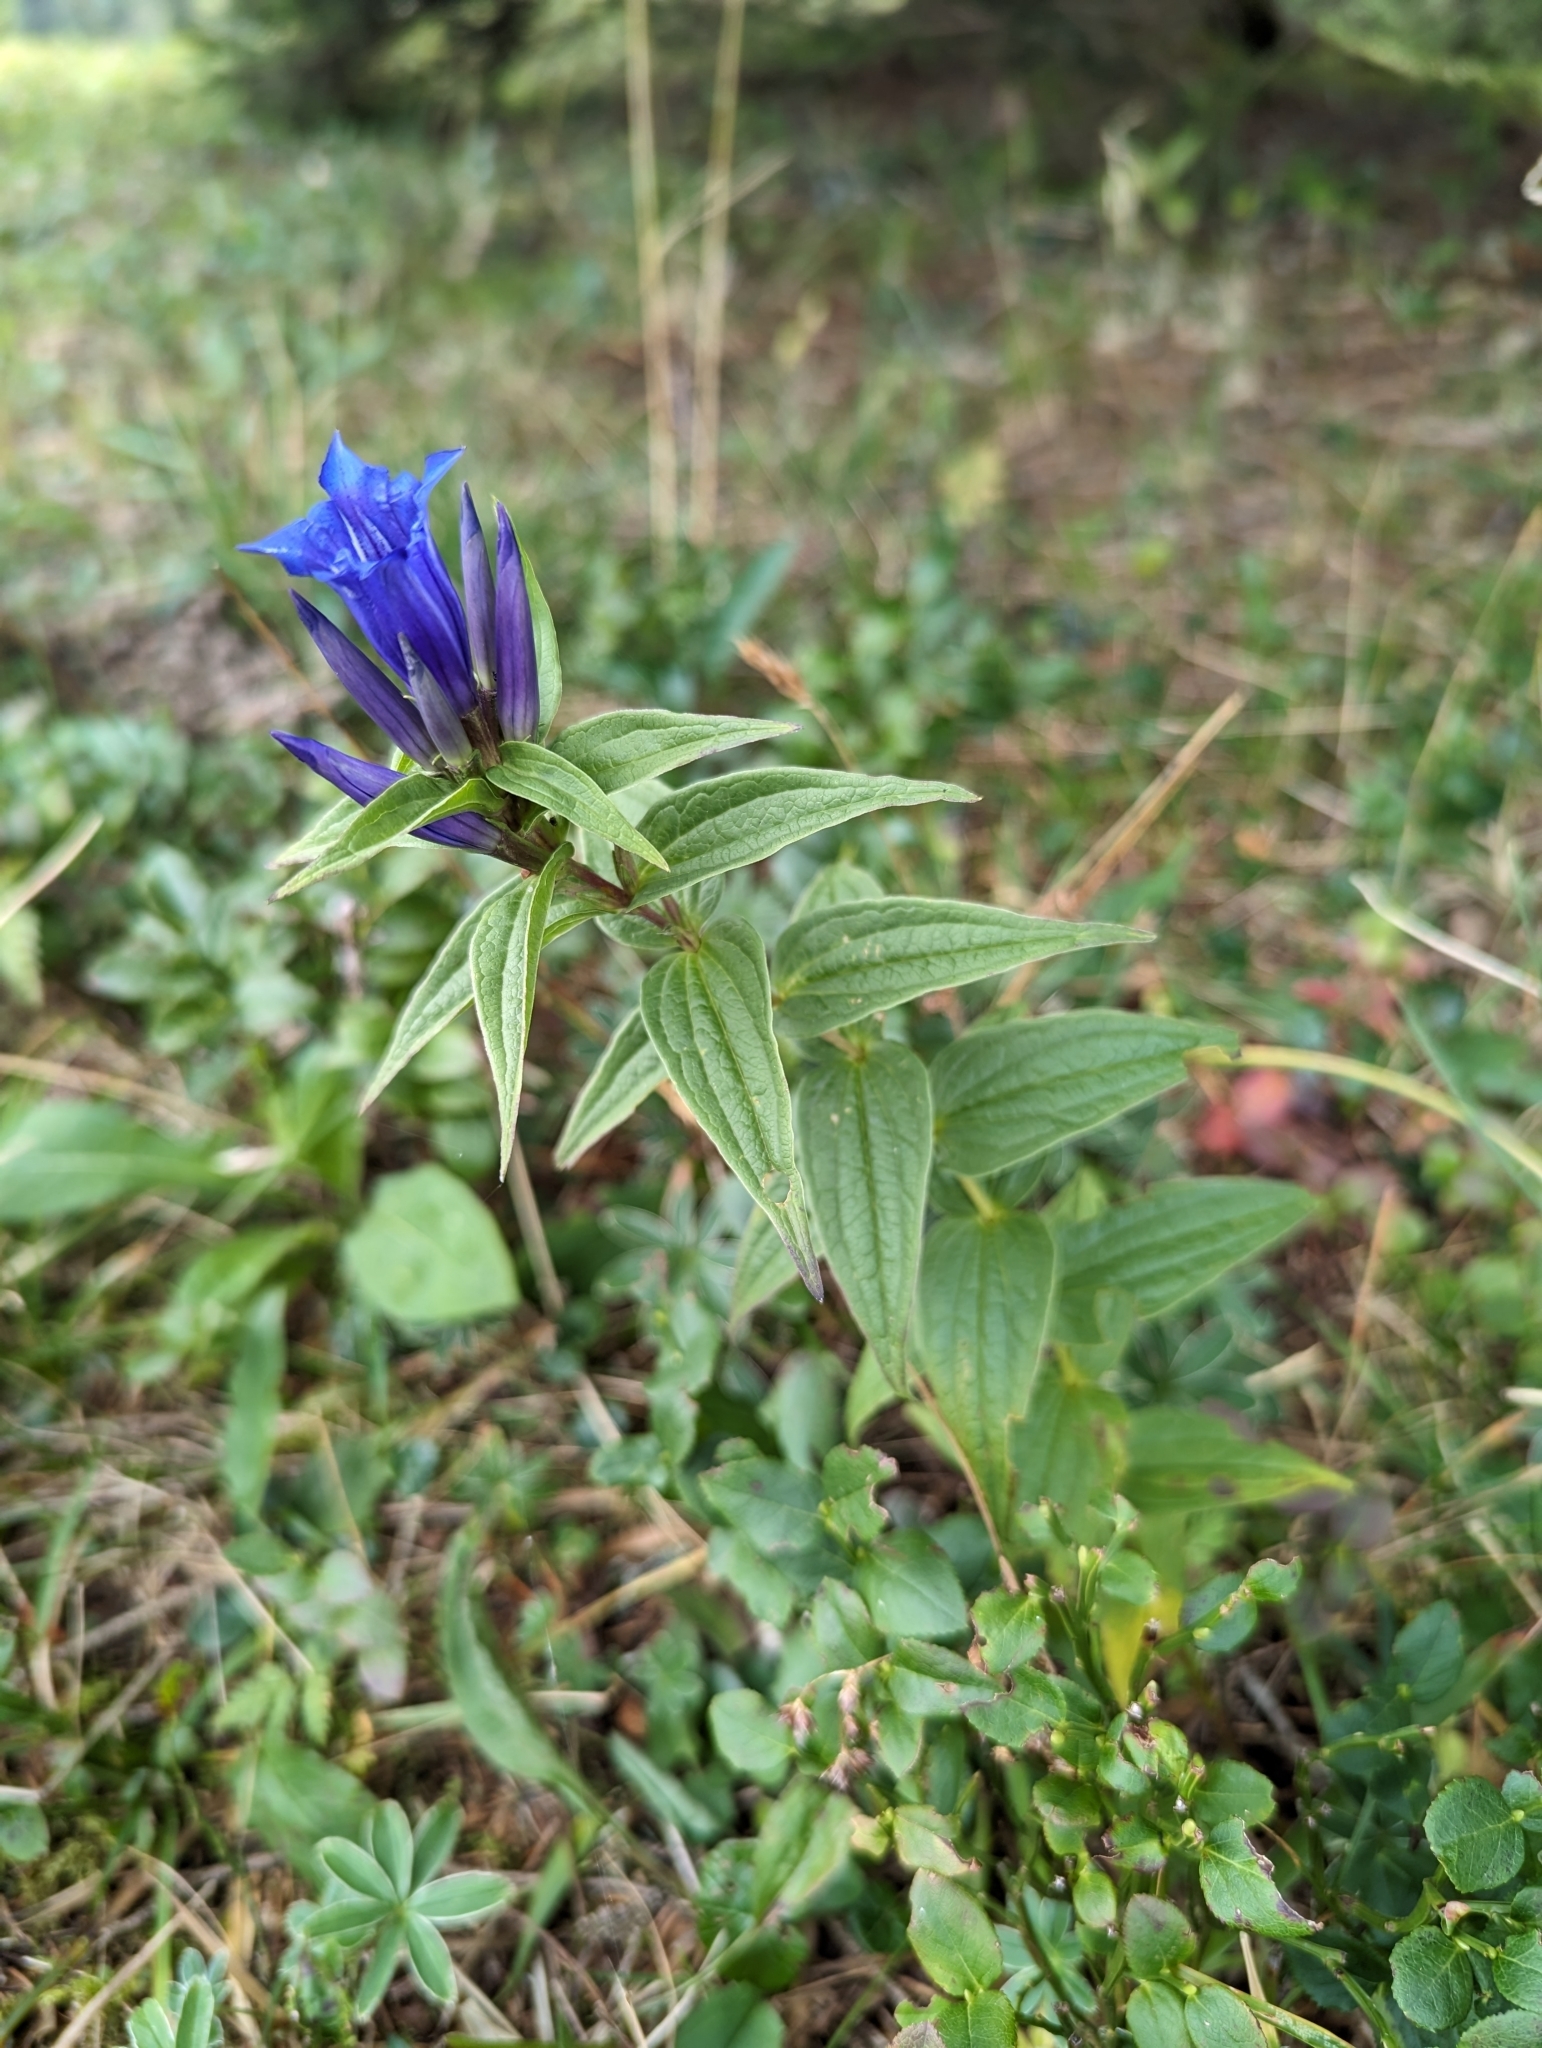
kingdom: Plantae
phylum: Tracheophyta
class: Magnoliopsida
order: Gentianales
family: Gentianaceae
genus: Gentiana
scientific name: Gentiana asclepiadea
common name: Willow gentian
